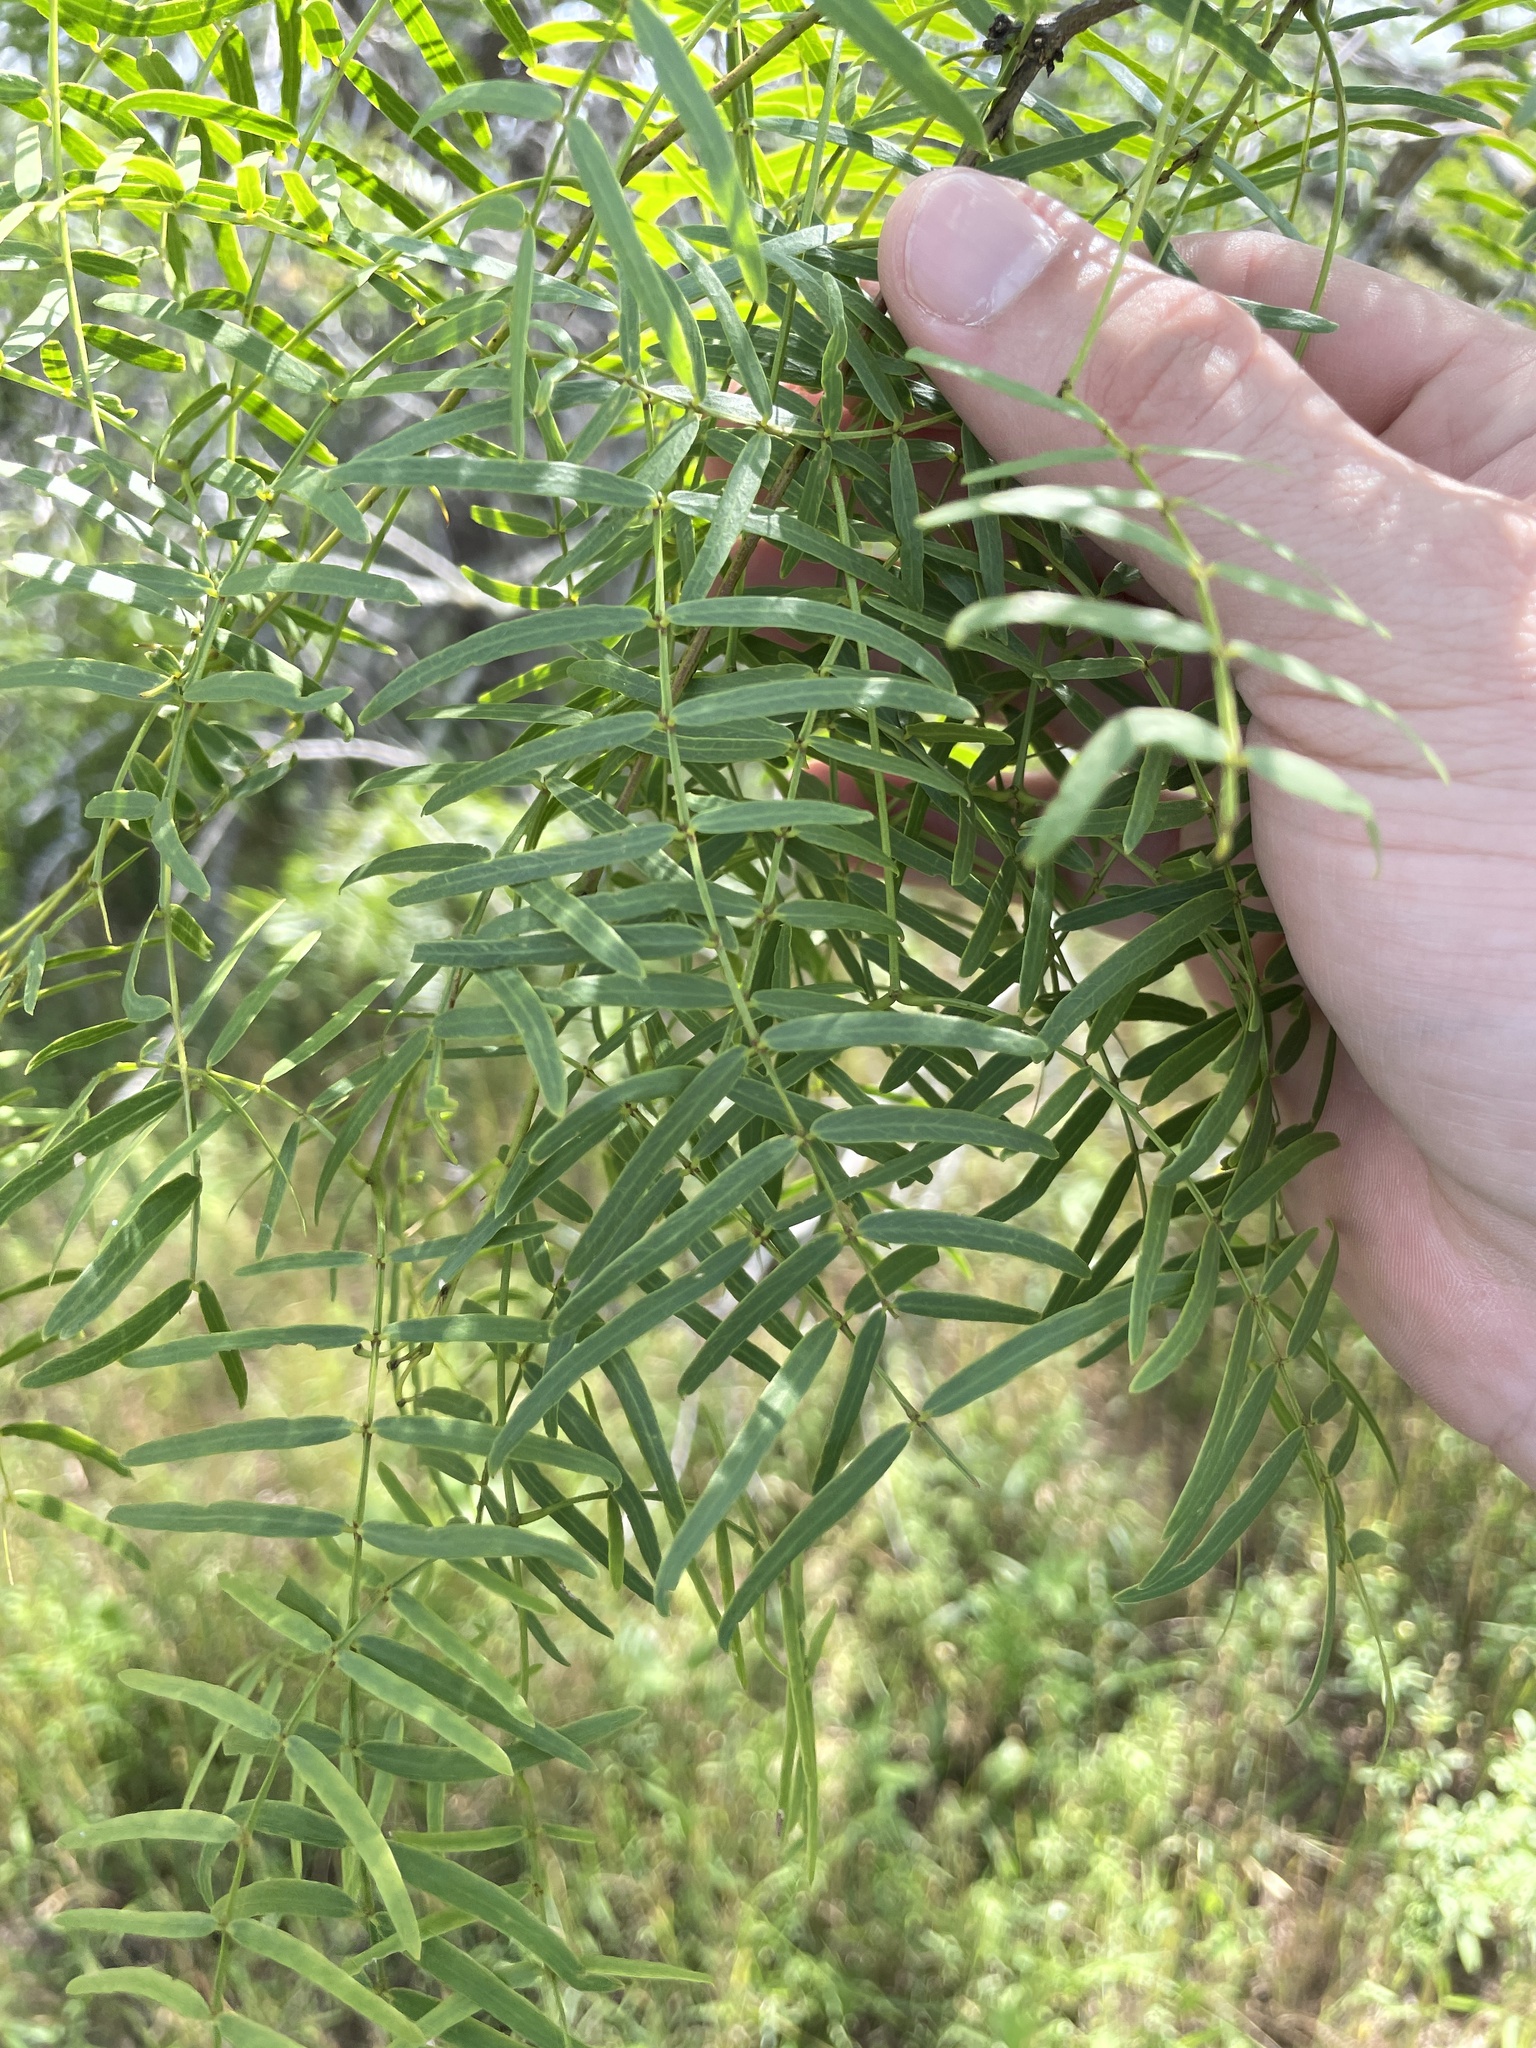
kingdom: Plantae
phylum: Tracheophyta
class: Magnoliopsida
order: Fabales
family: Fabaceae
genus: Prosopis
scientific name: Prosopis glandulosa
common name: Honey mesquite
